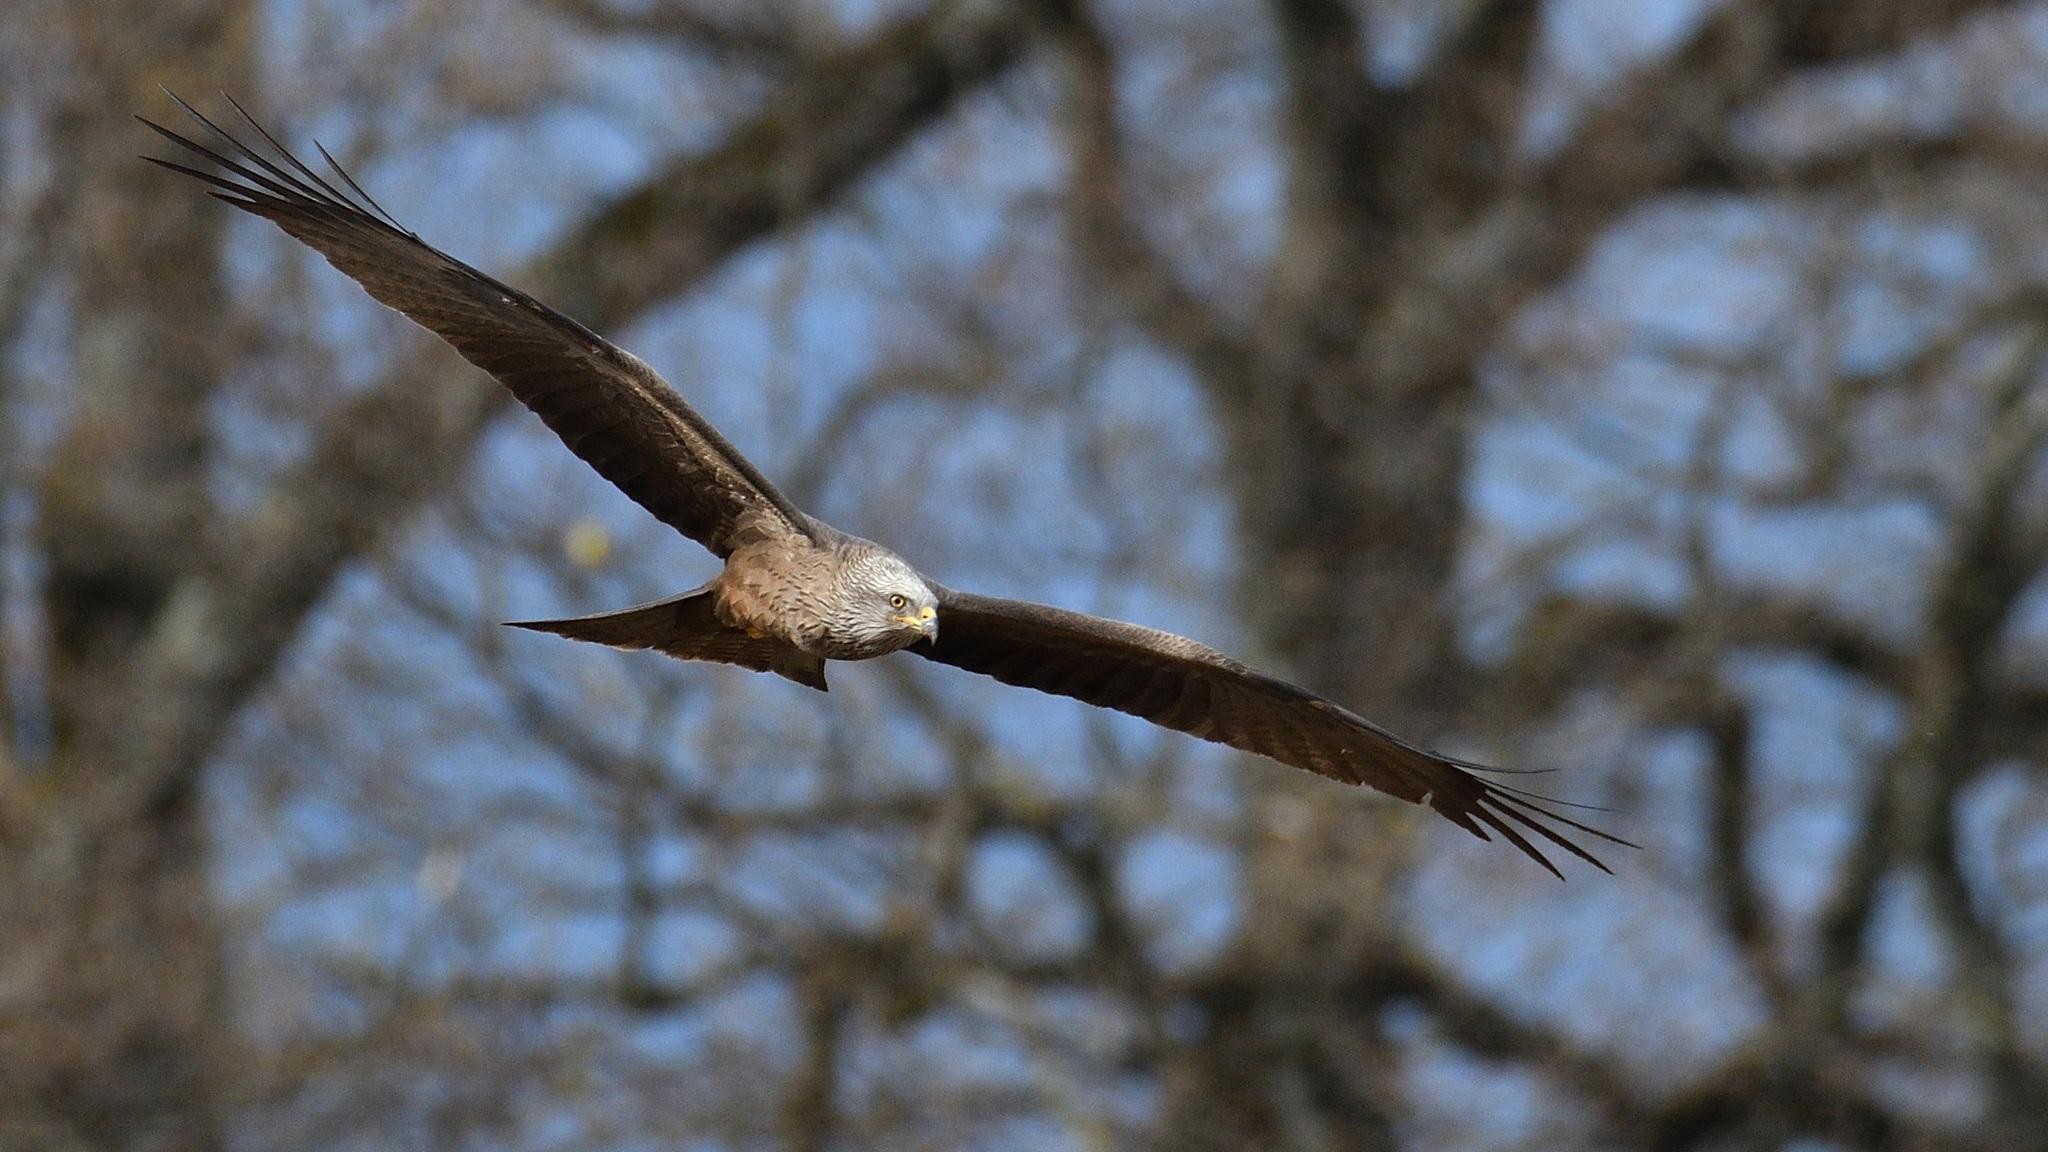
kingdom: Animalia
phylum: Chordata
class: Aves
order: Accipitriformes
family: Accipitridae
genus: Milvus
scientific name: Milvus migrans
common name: Black kite
